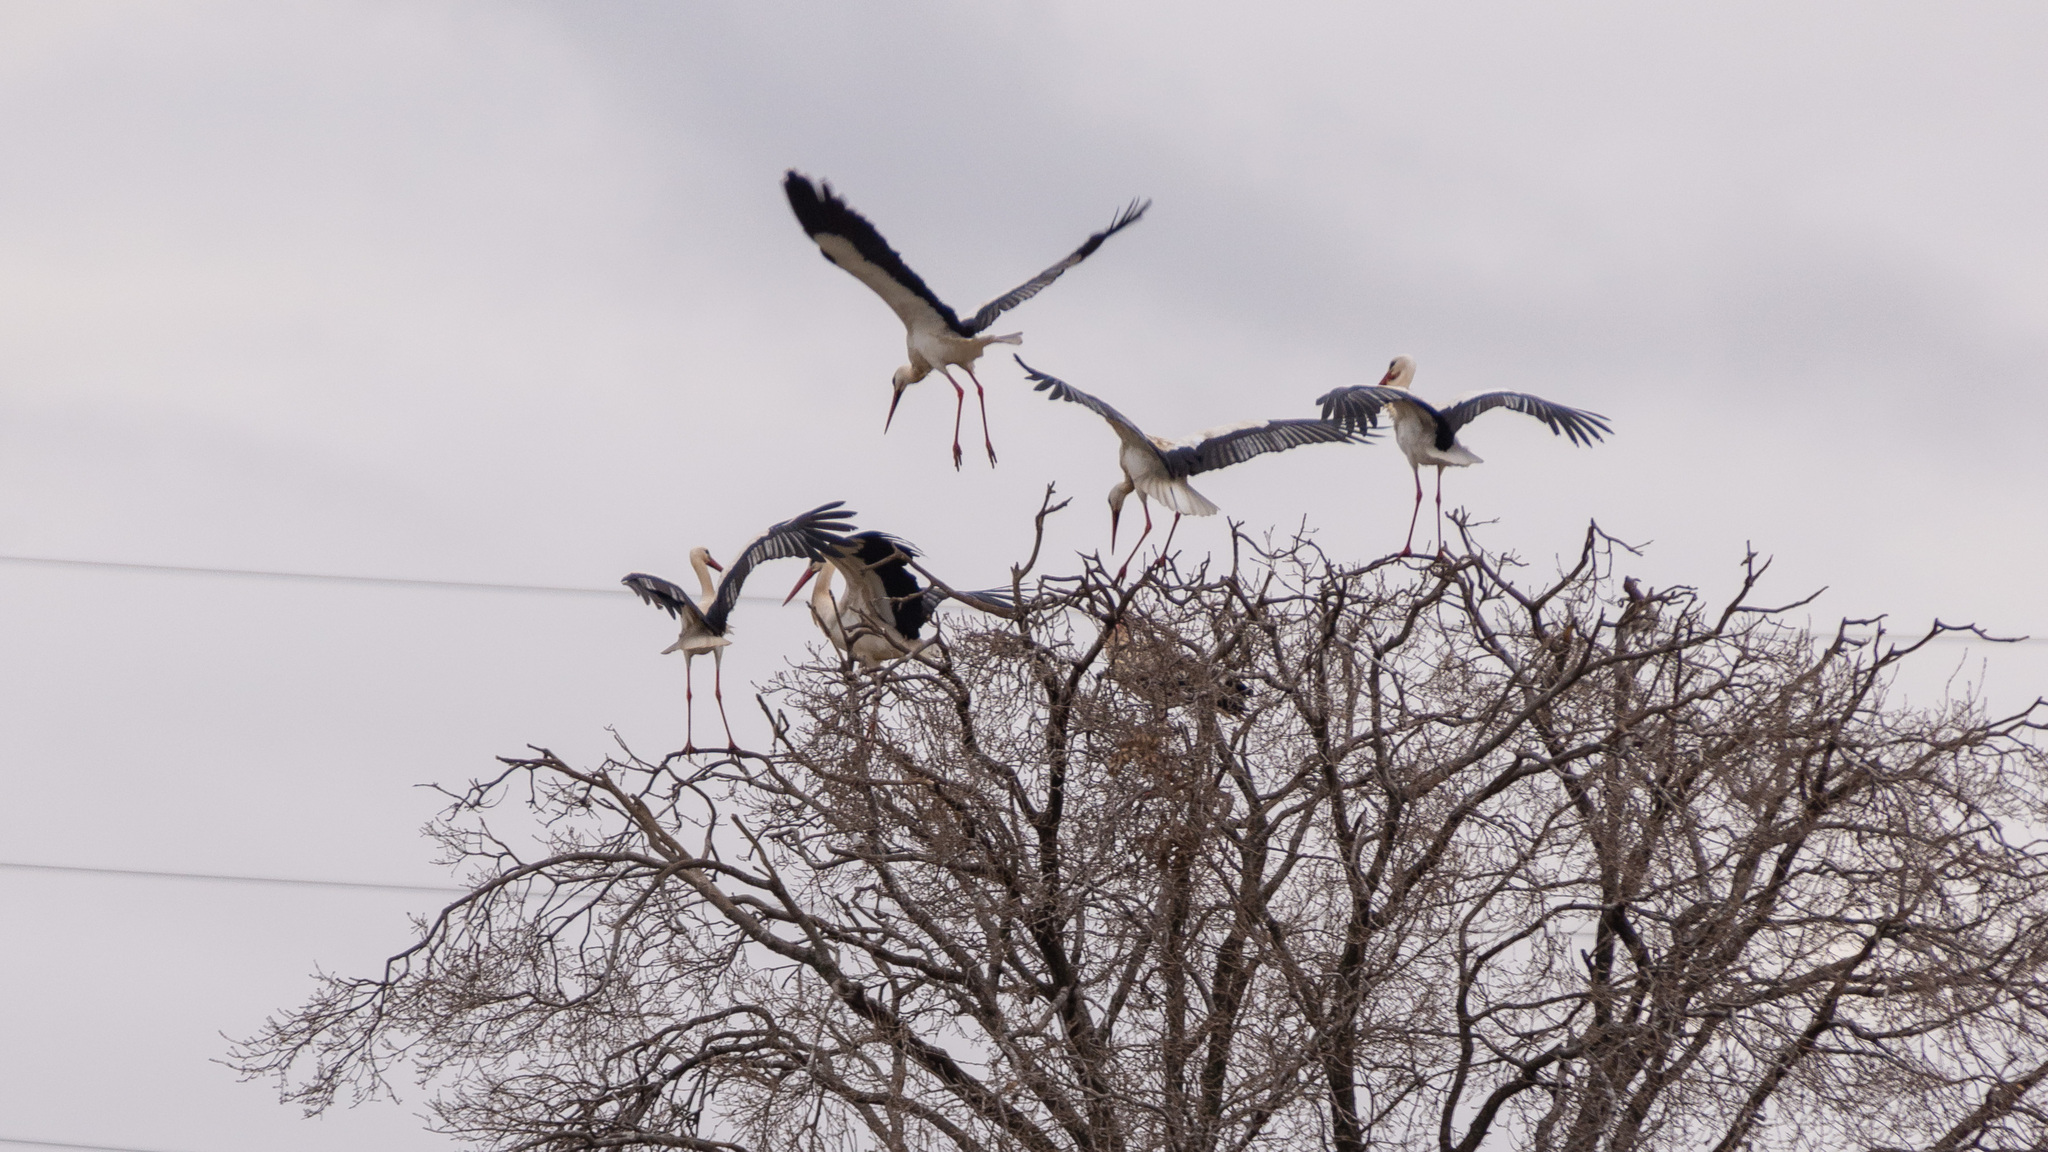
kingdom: Animalia
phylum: Chordata
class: Aves
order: Ciconiiformes
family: Ciconiidae
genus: Ciconia
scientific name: Ciconia ciconia
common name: White stork
